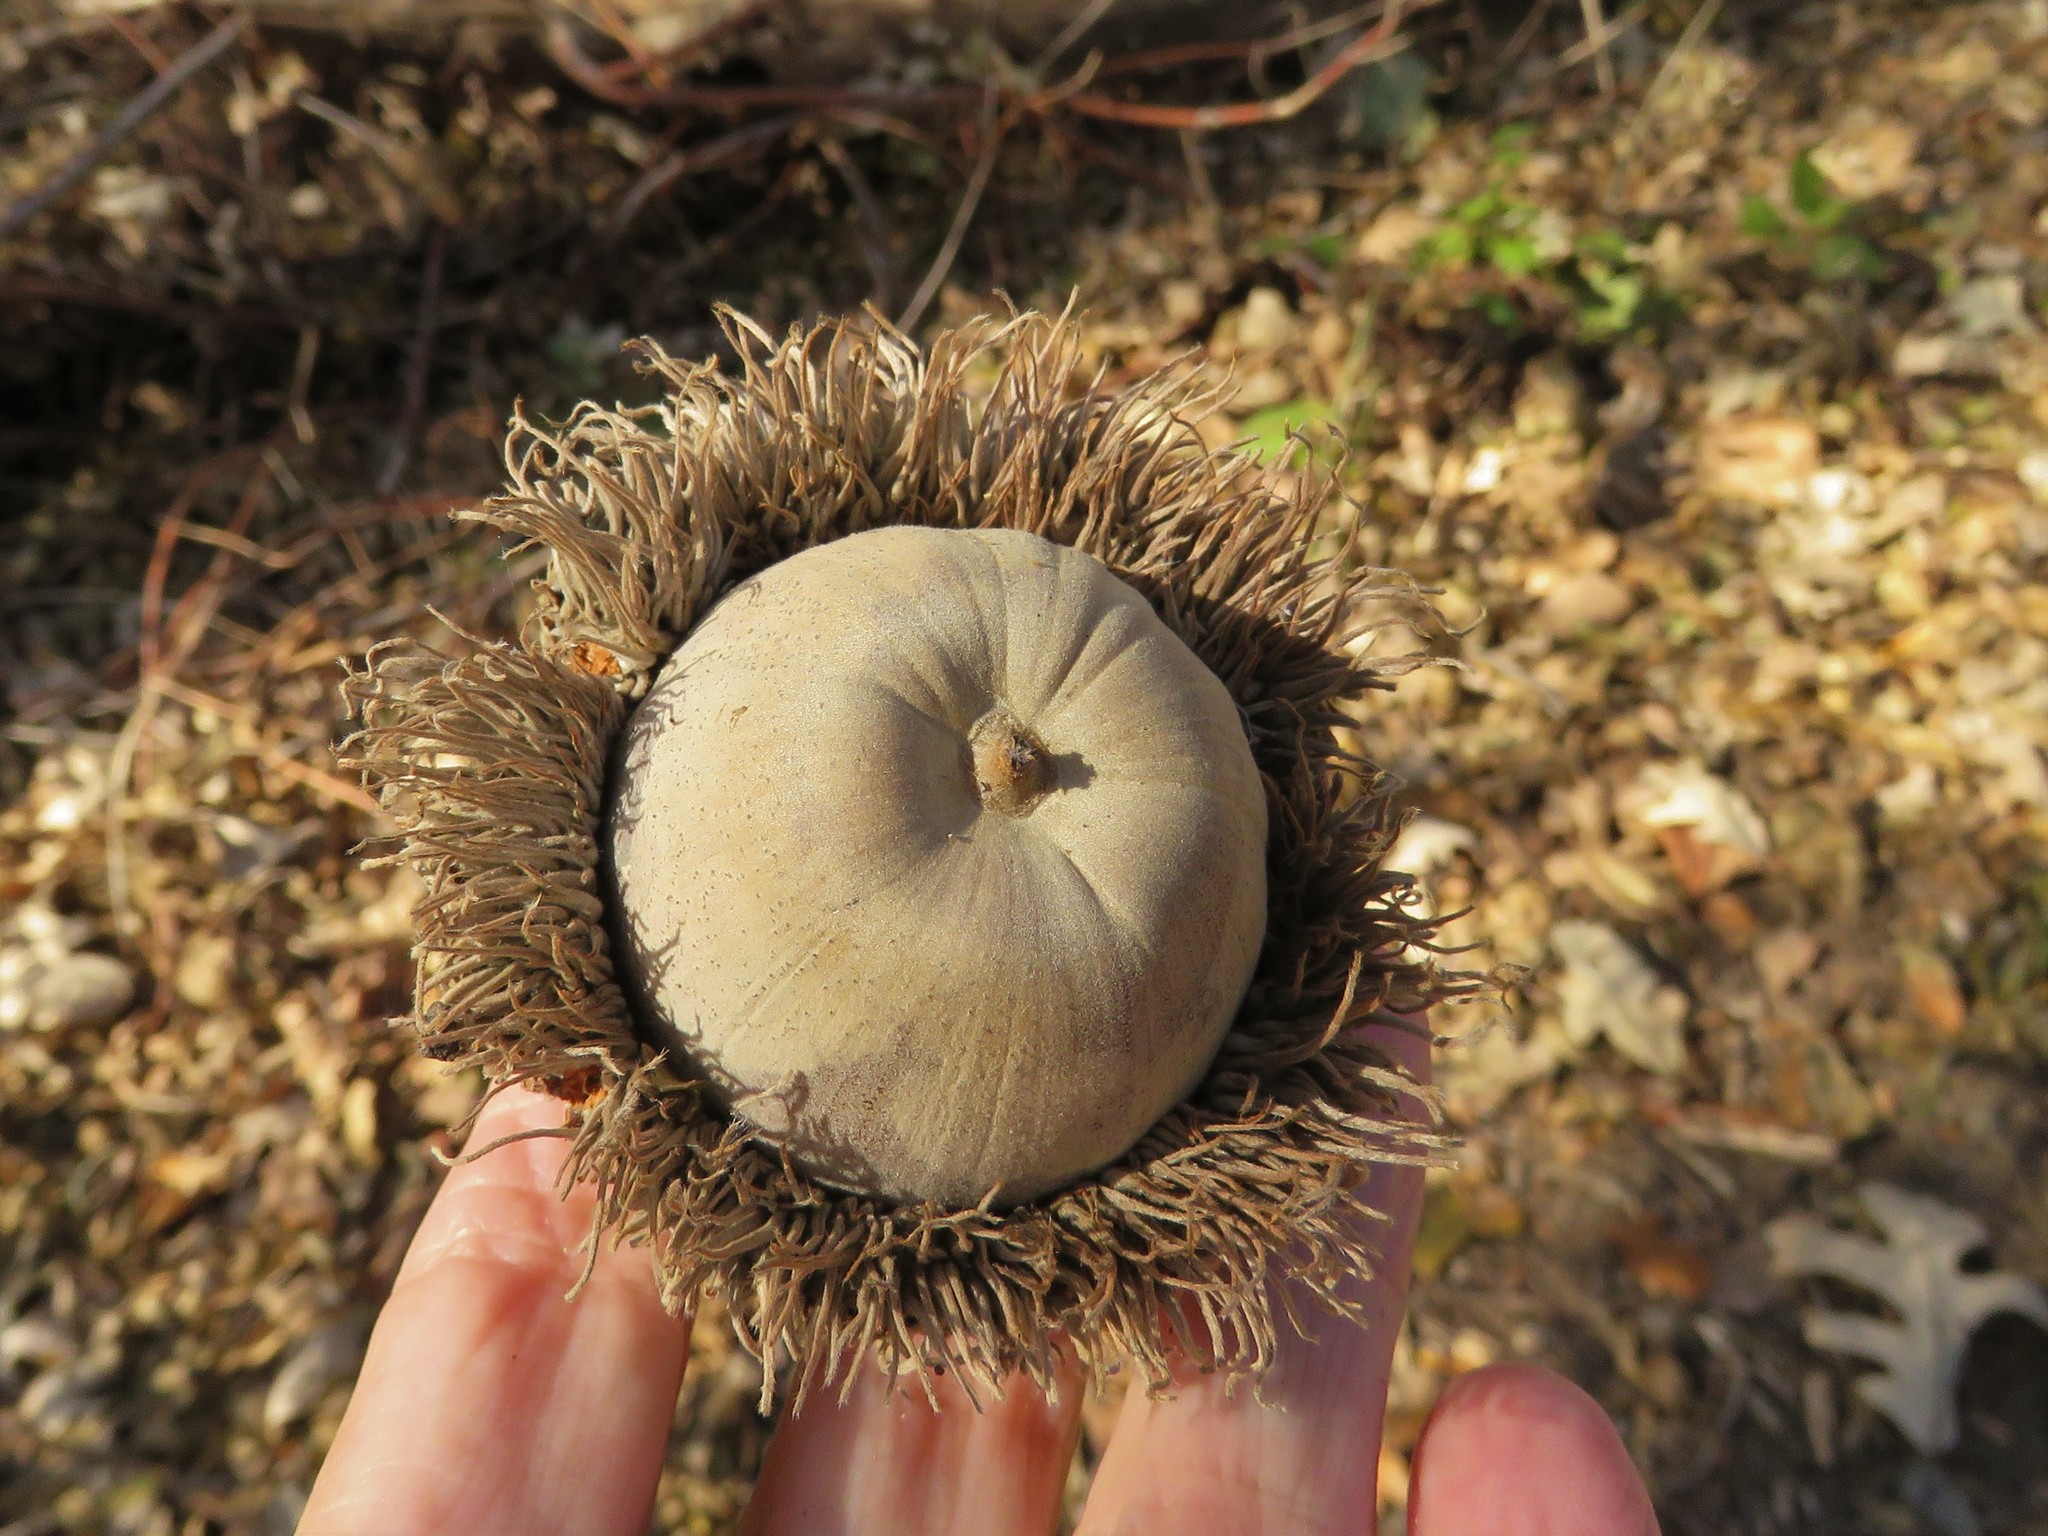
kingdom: Plantae
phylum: Tracheophyta
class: Magnoliopsida
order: Fagales
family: Fagaceae
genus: Quercus
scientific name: Quercus macrocarpa
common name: Bur oak
